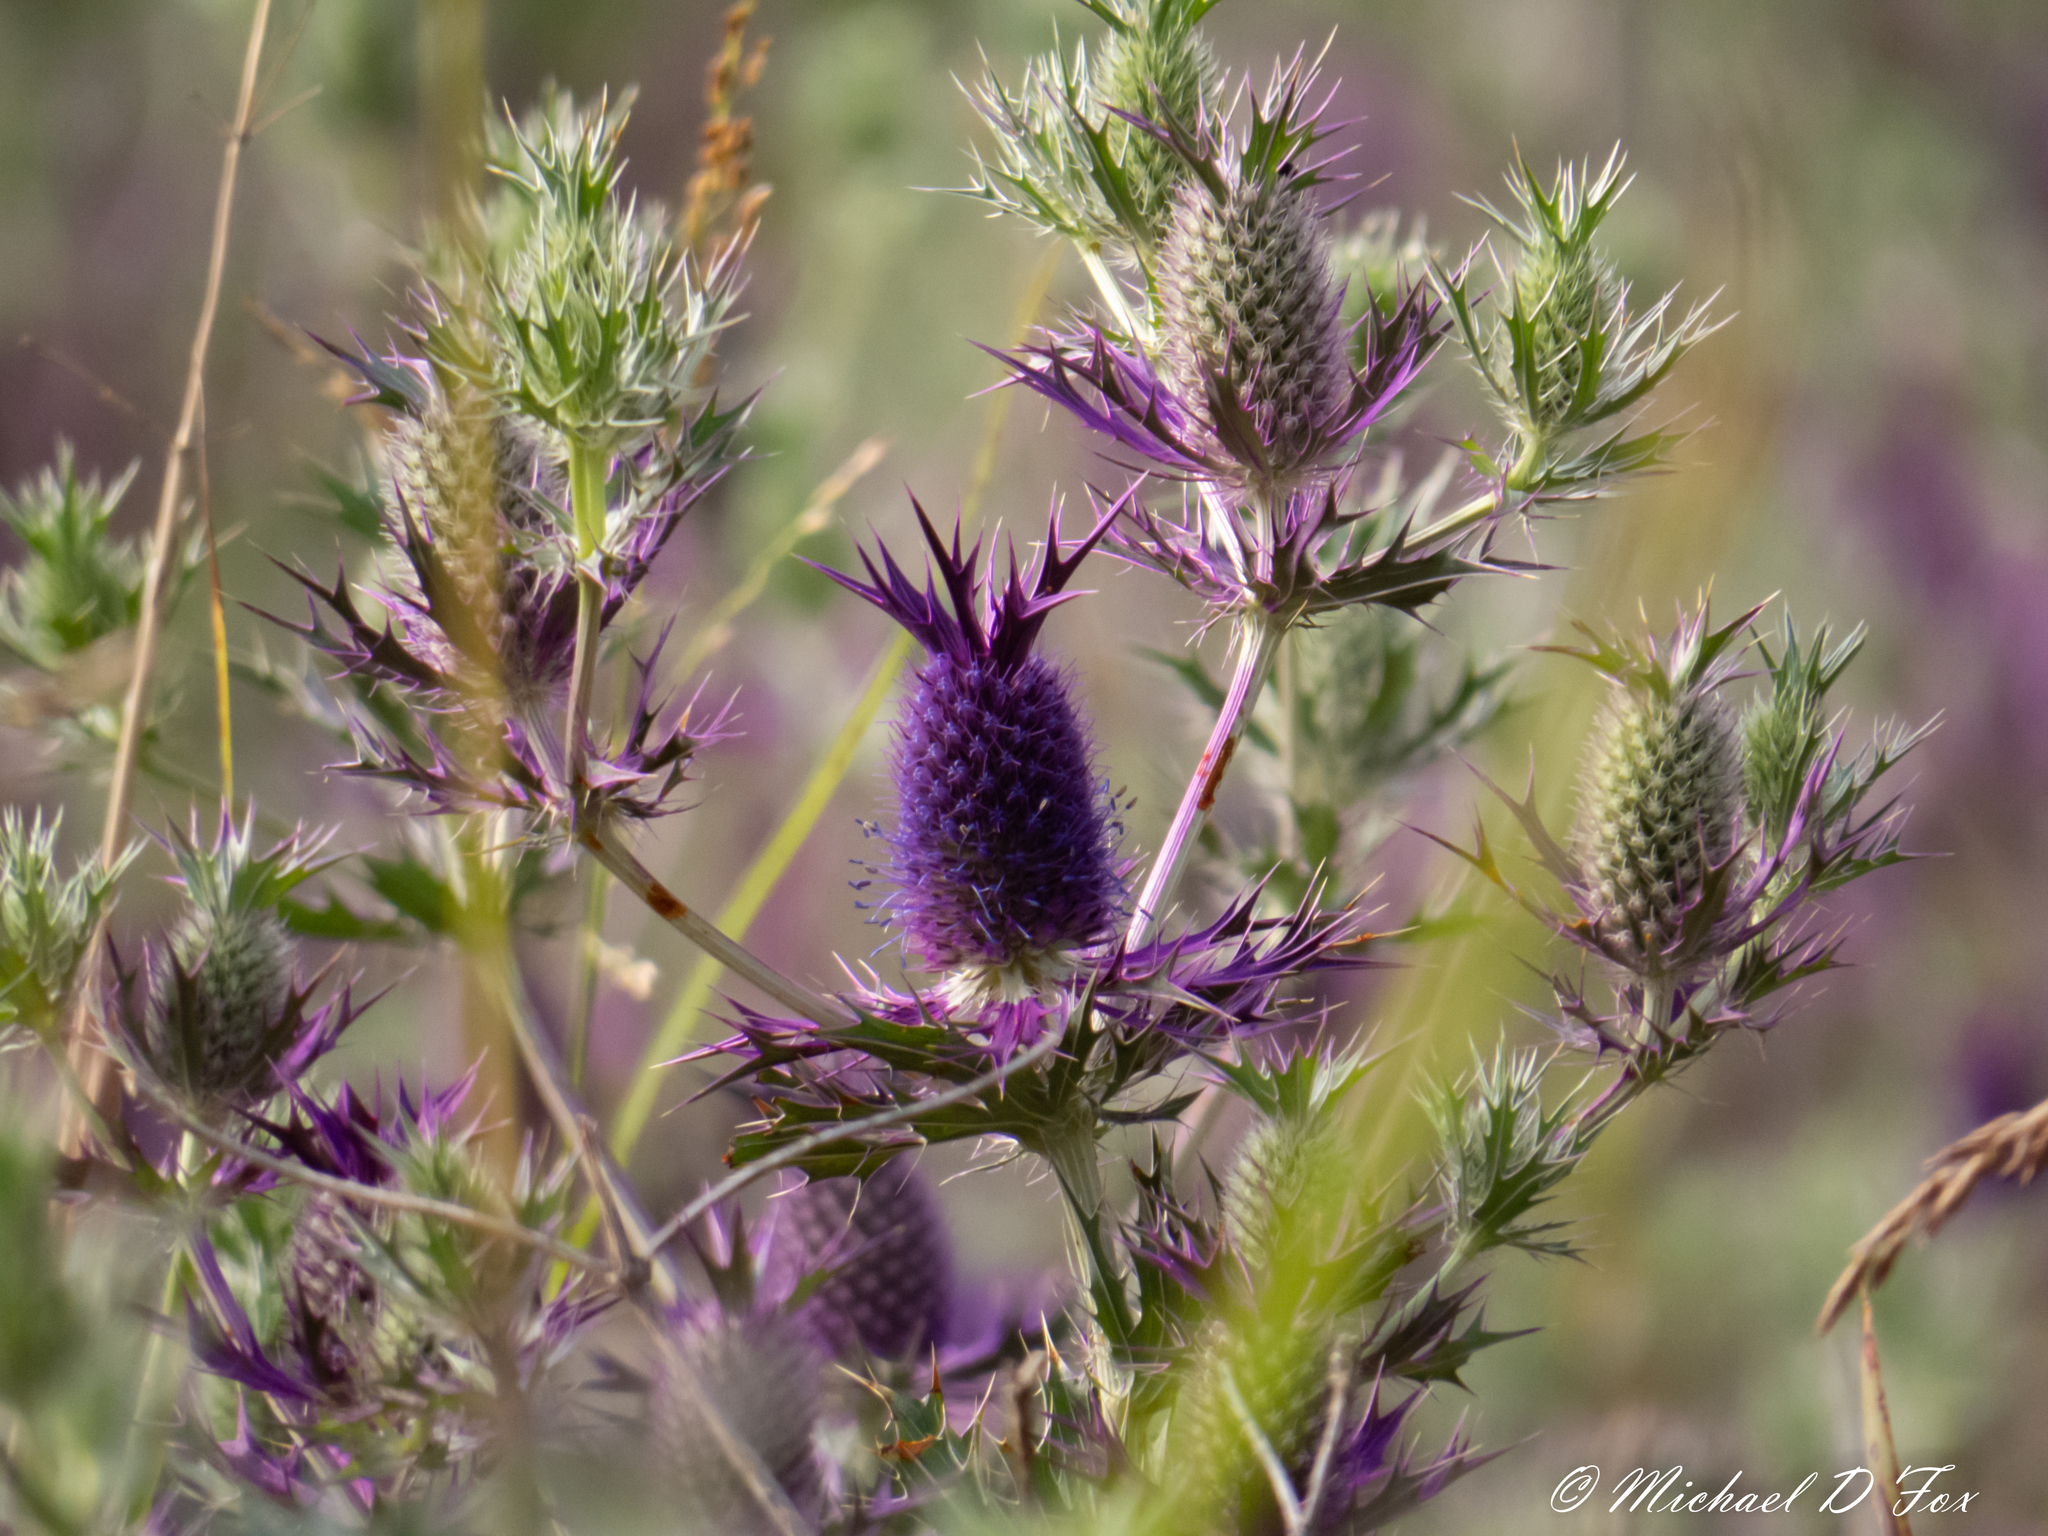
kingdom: Plantae
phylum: Tracheophyta
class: Magnoliopsida
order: Apiales
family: Apiaceae
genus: Eryngium
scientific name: Eryngium leavenworthii
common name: Leavenworth's eryngo
